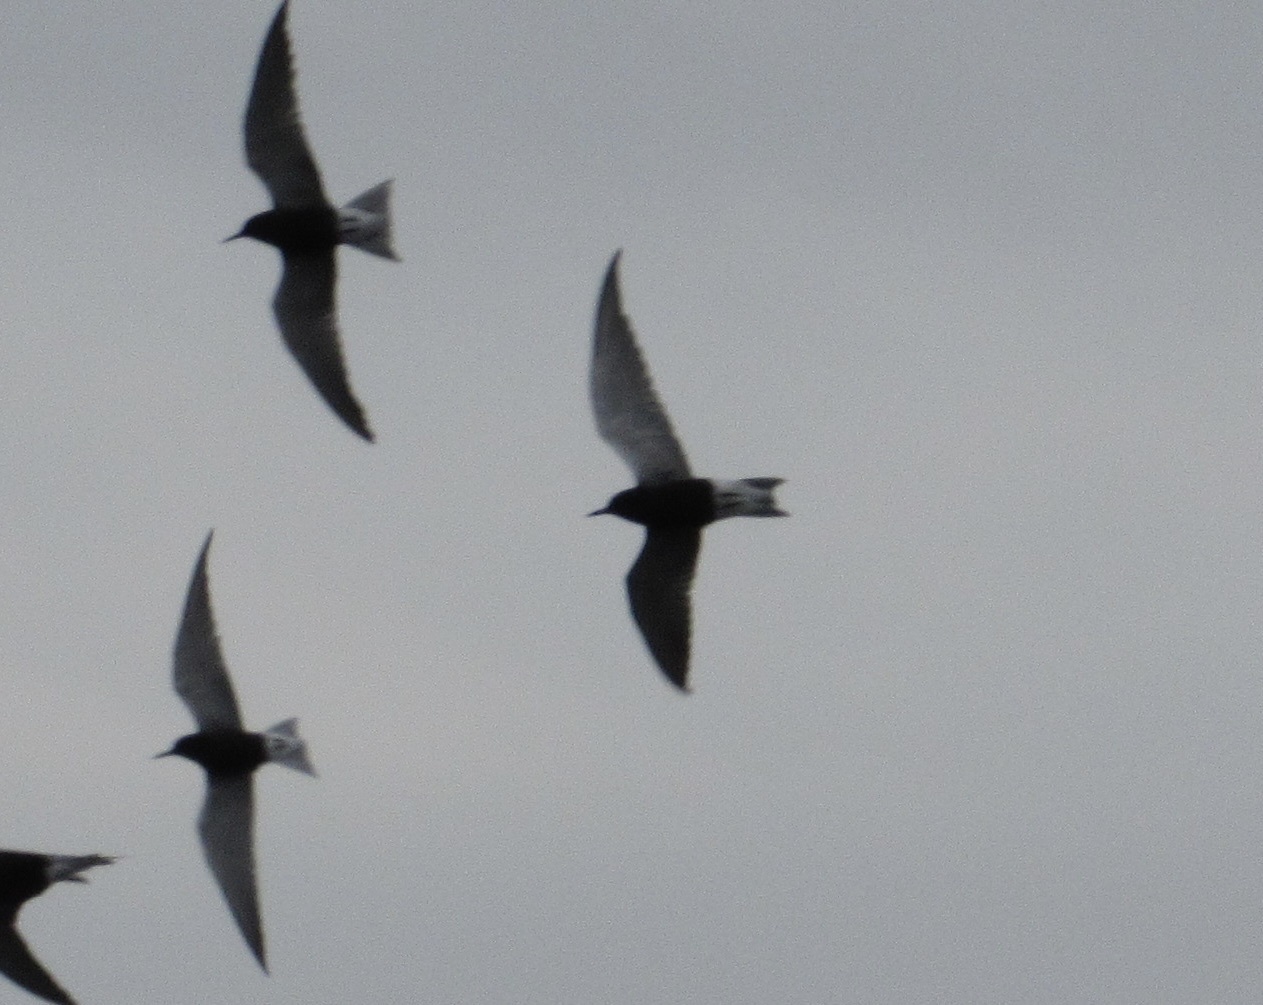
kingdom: Animalia
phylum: Chordata
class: Aves
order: Charadriiformes
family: Laridae
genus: Chlidonias
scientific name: Chlidonias niger
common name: Black tern
